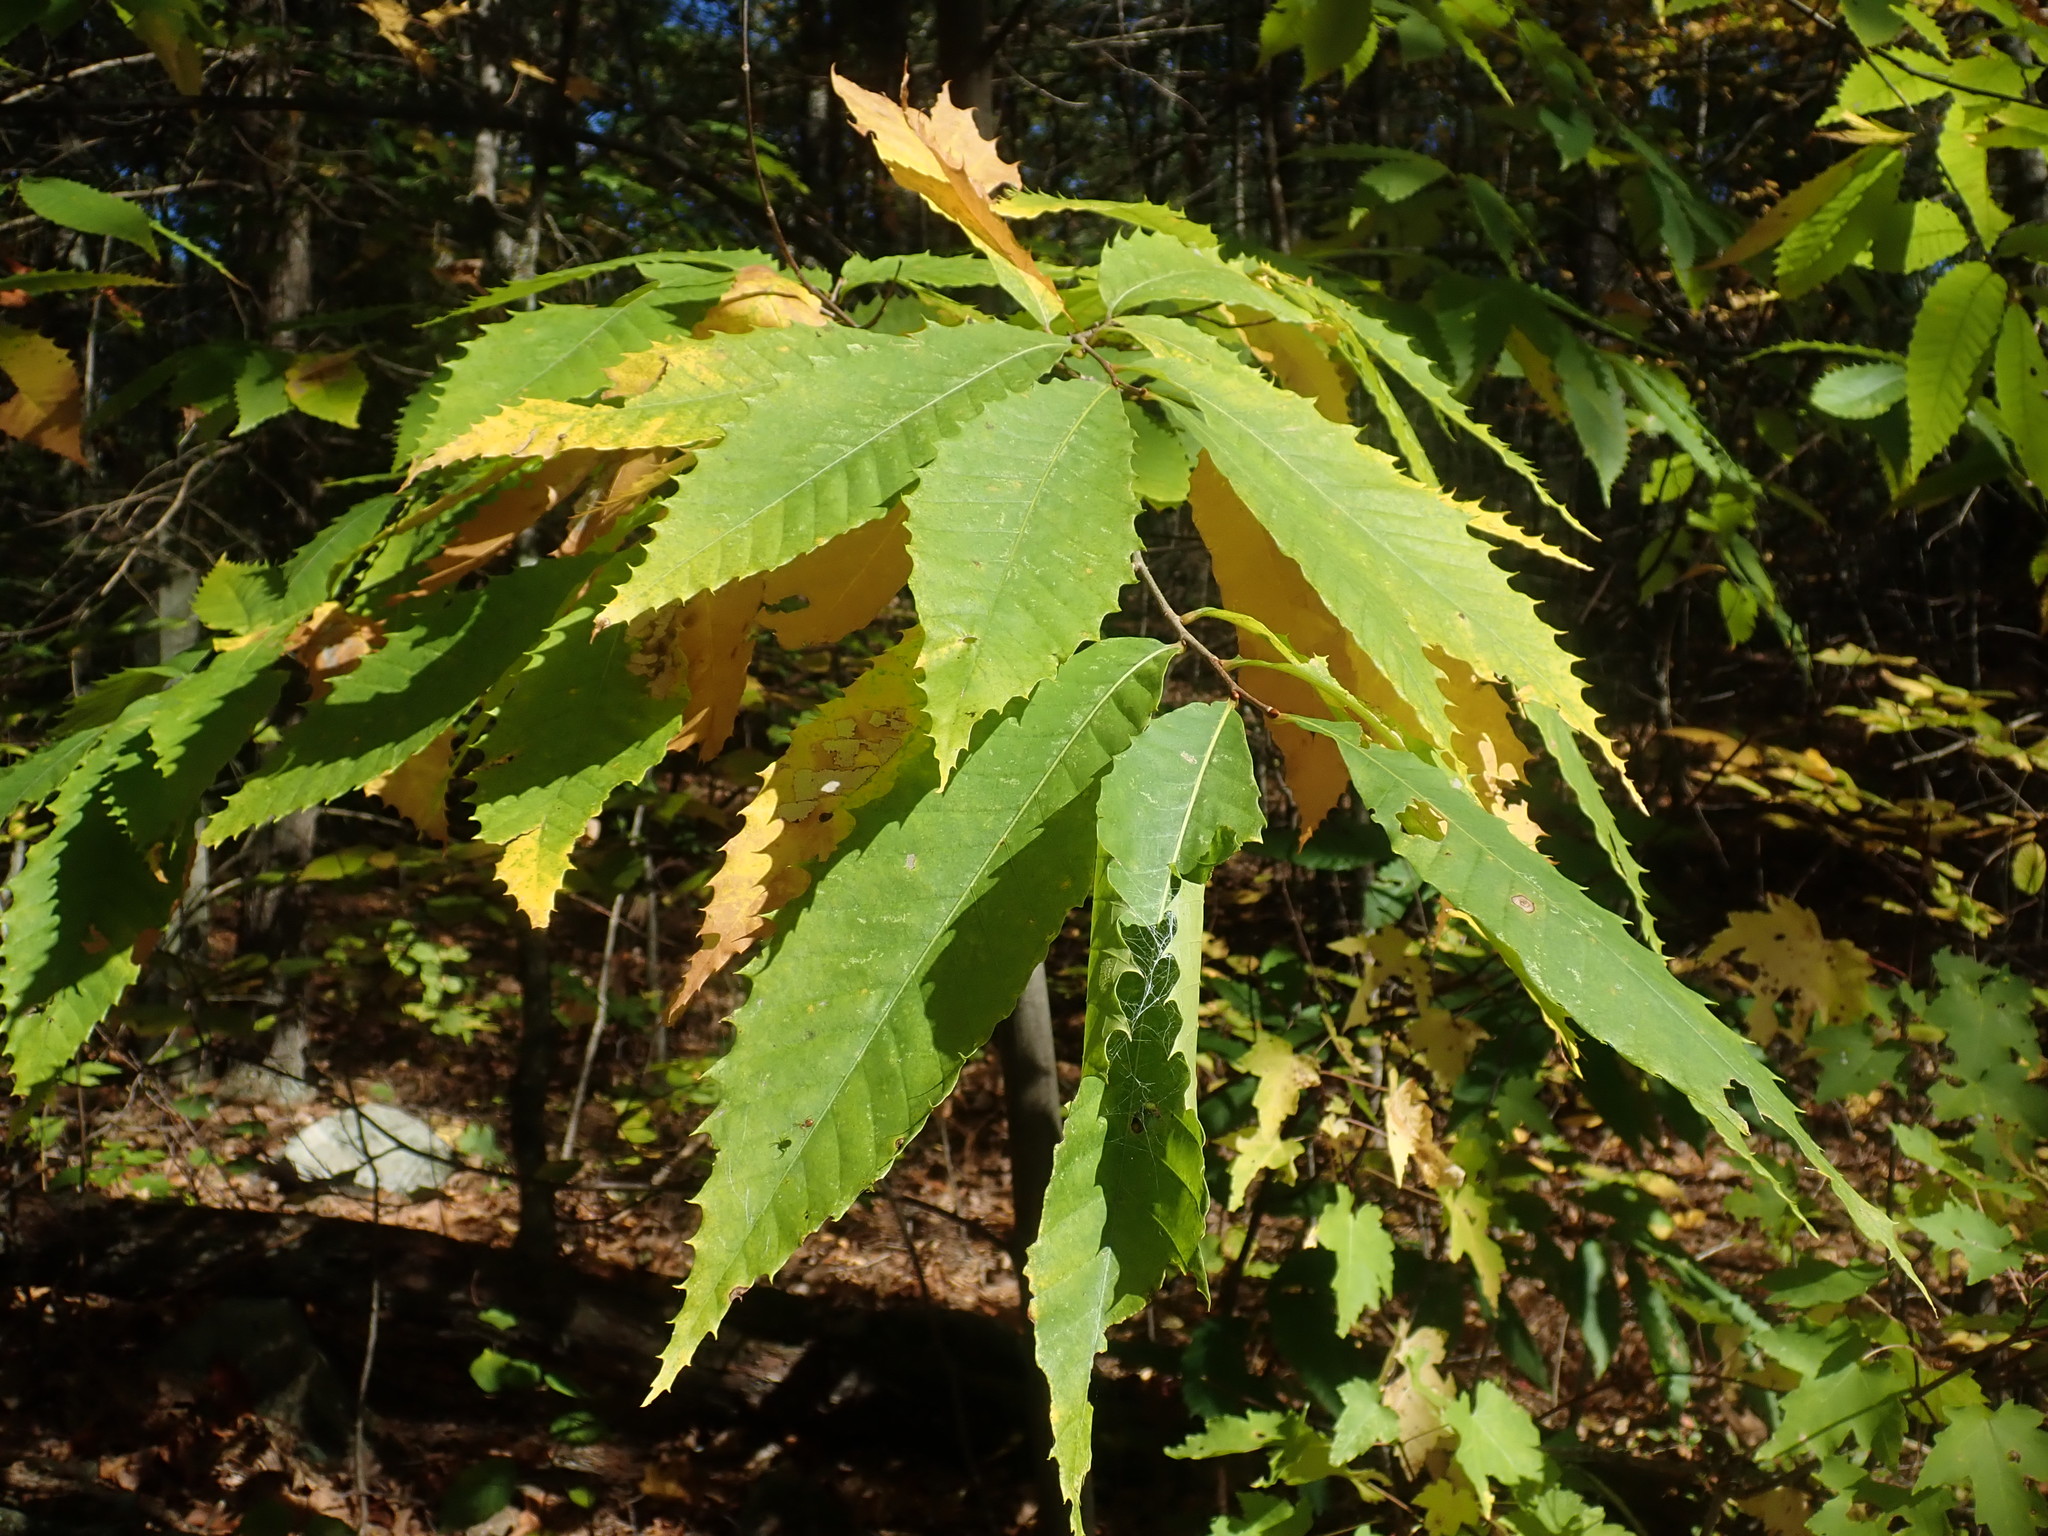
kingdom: Plantae
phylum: Tracheophyta
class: Magnoliopsida
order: Fagales
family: Fagaceae
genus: Castanea
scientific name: Castanea dentata
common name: American chestnut
